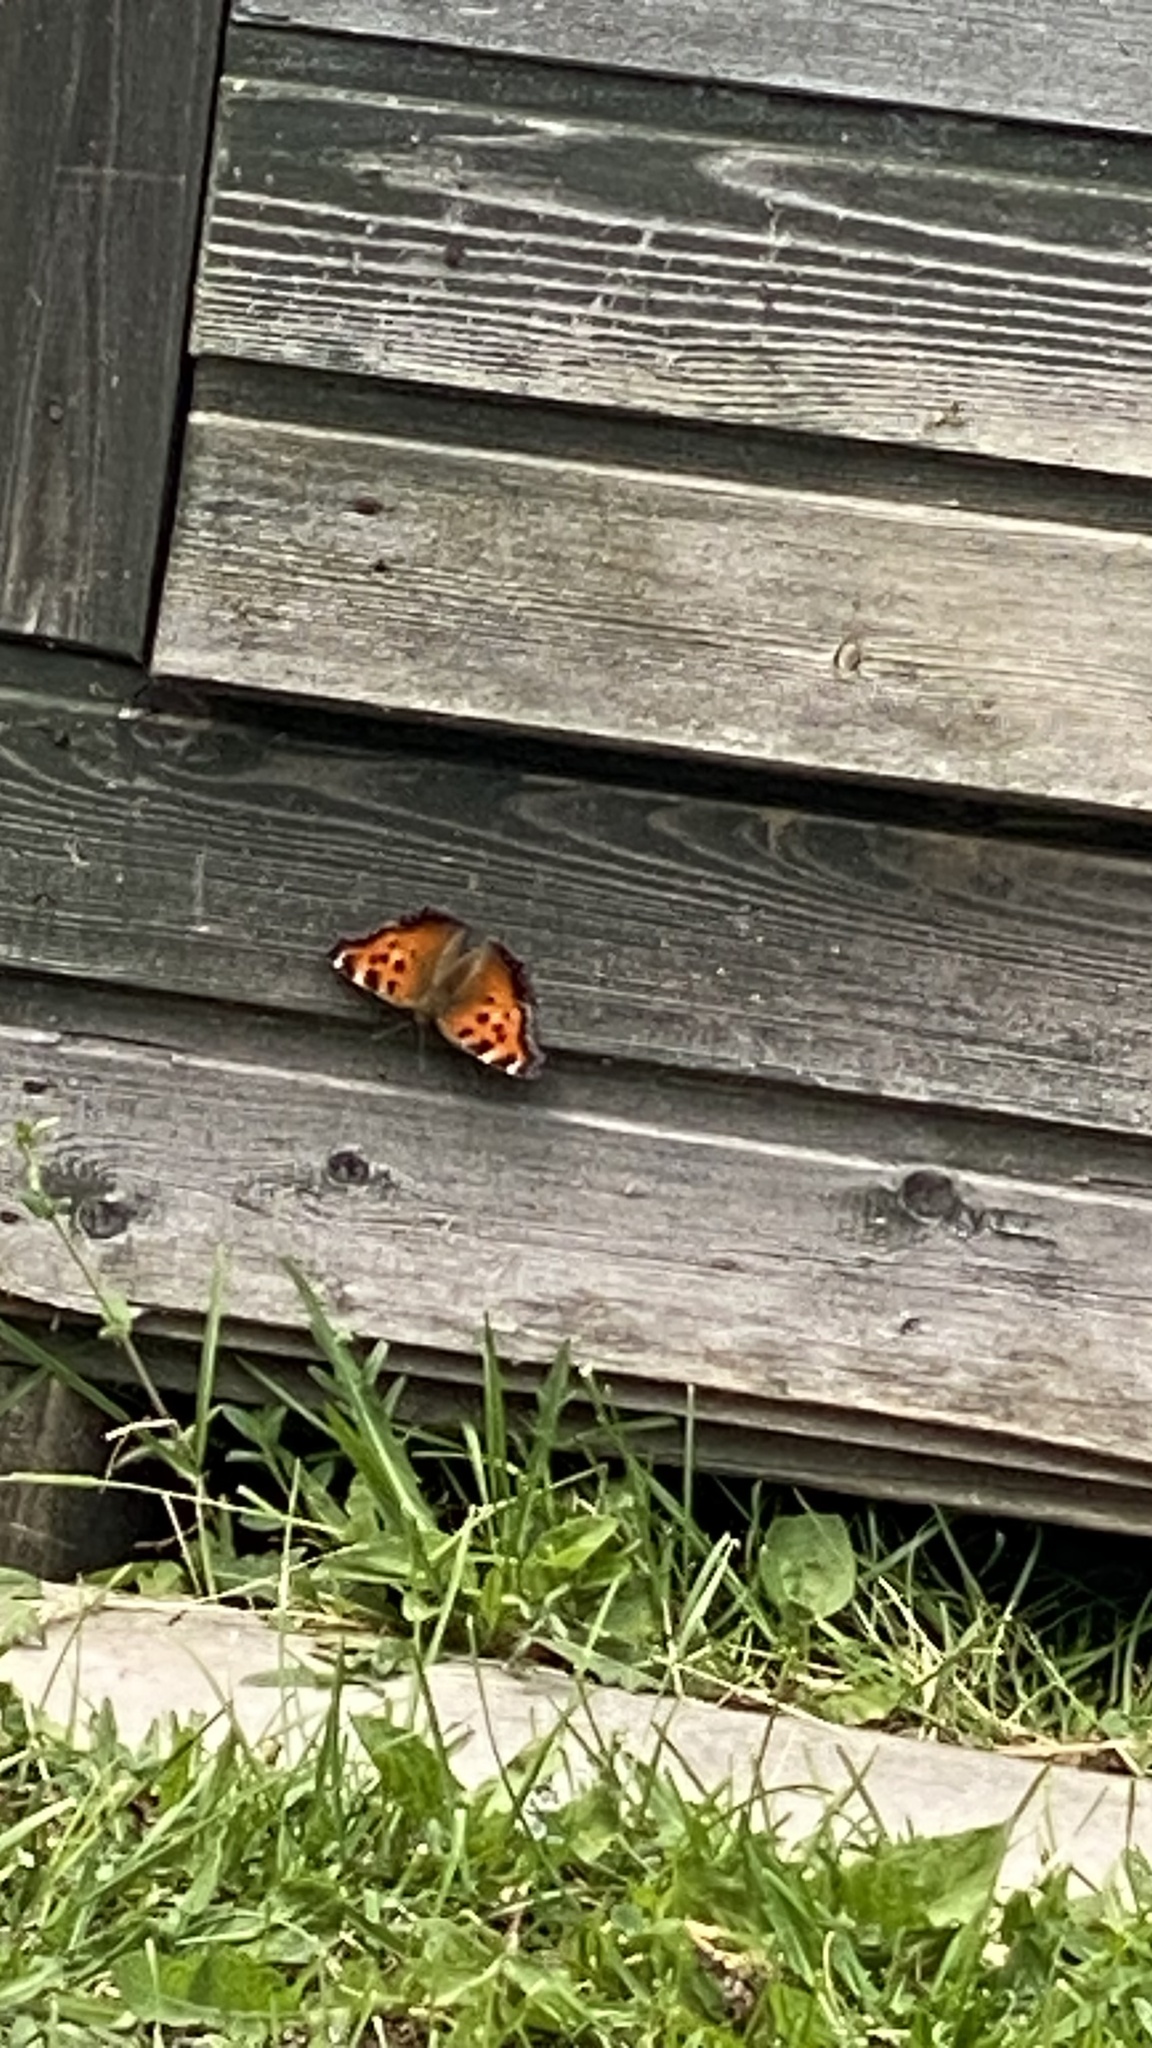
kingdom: Animalia
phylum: Arthropoda
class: Insecta
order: Lepidoptera
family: Nymphalidae
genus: Nymphalis
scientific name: Nymphalis xanthomelas
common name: Scarce tortoiseshell
